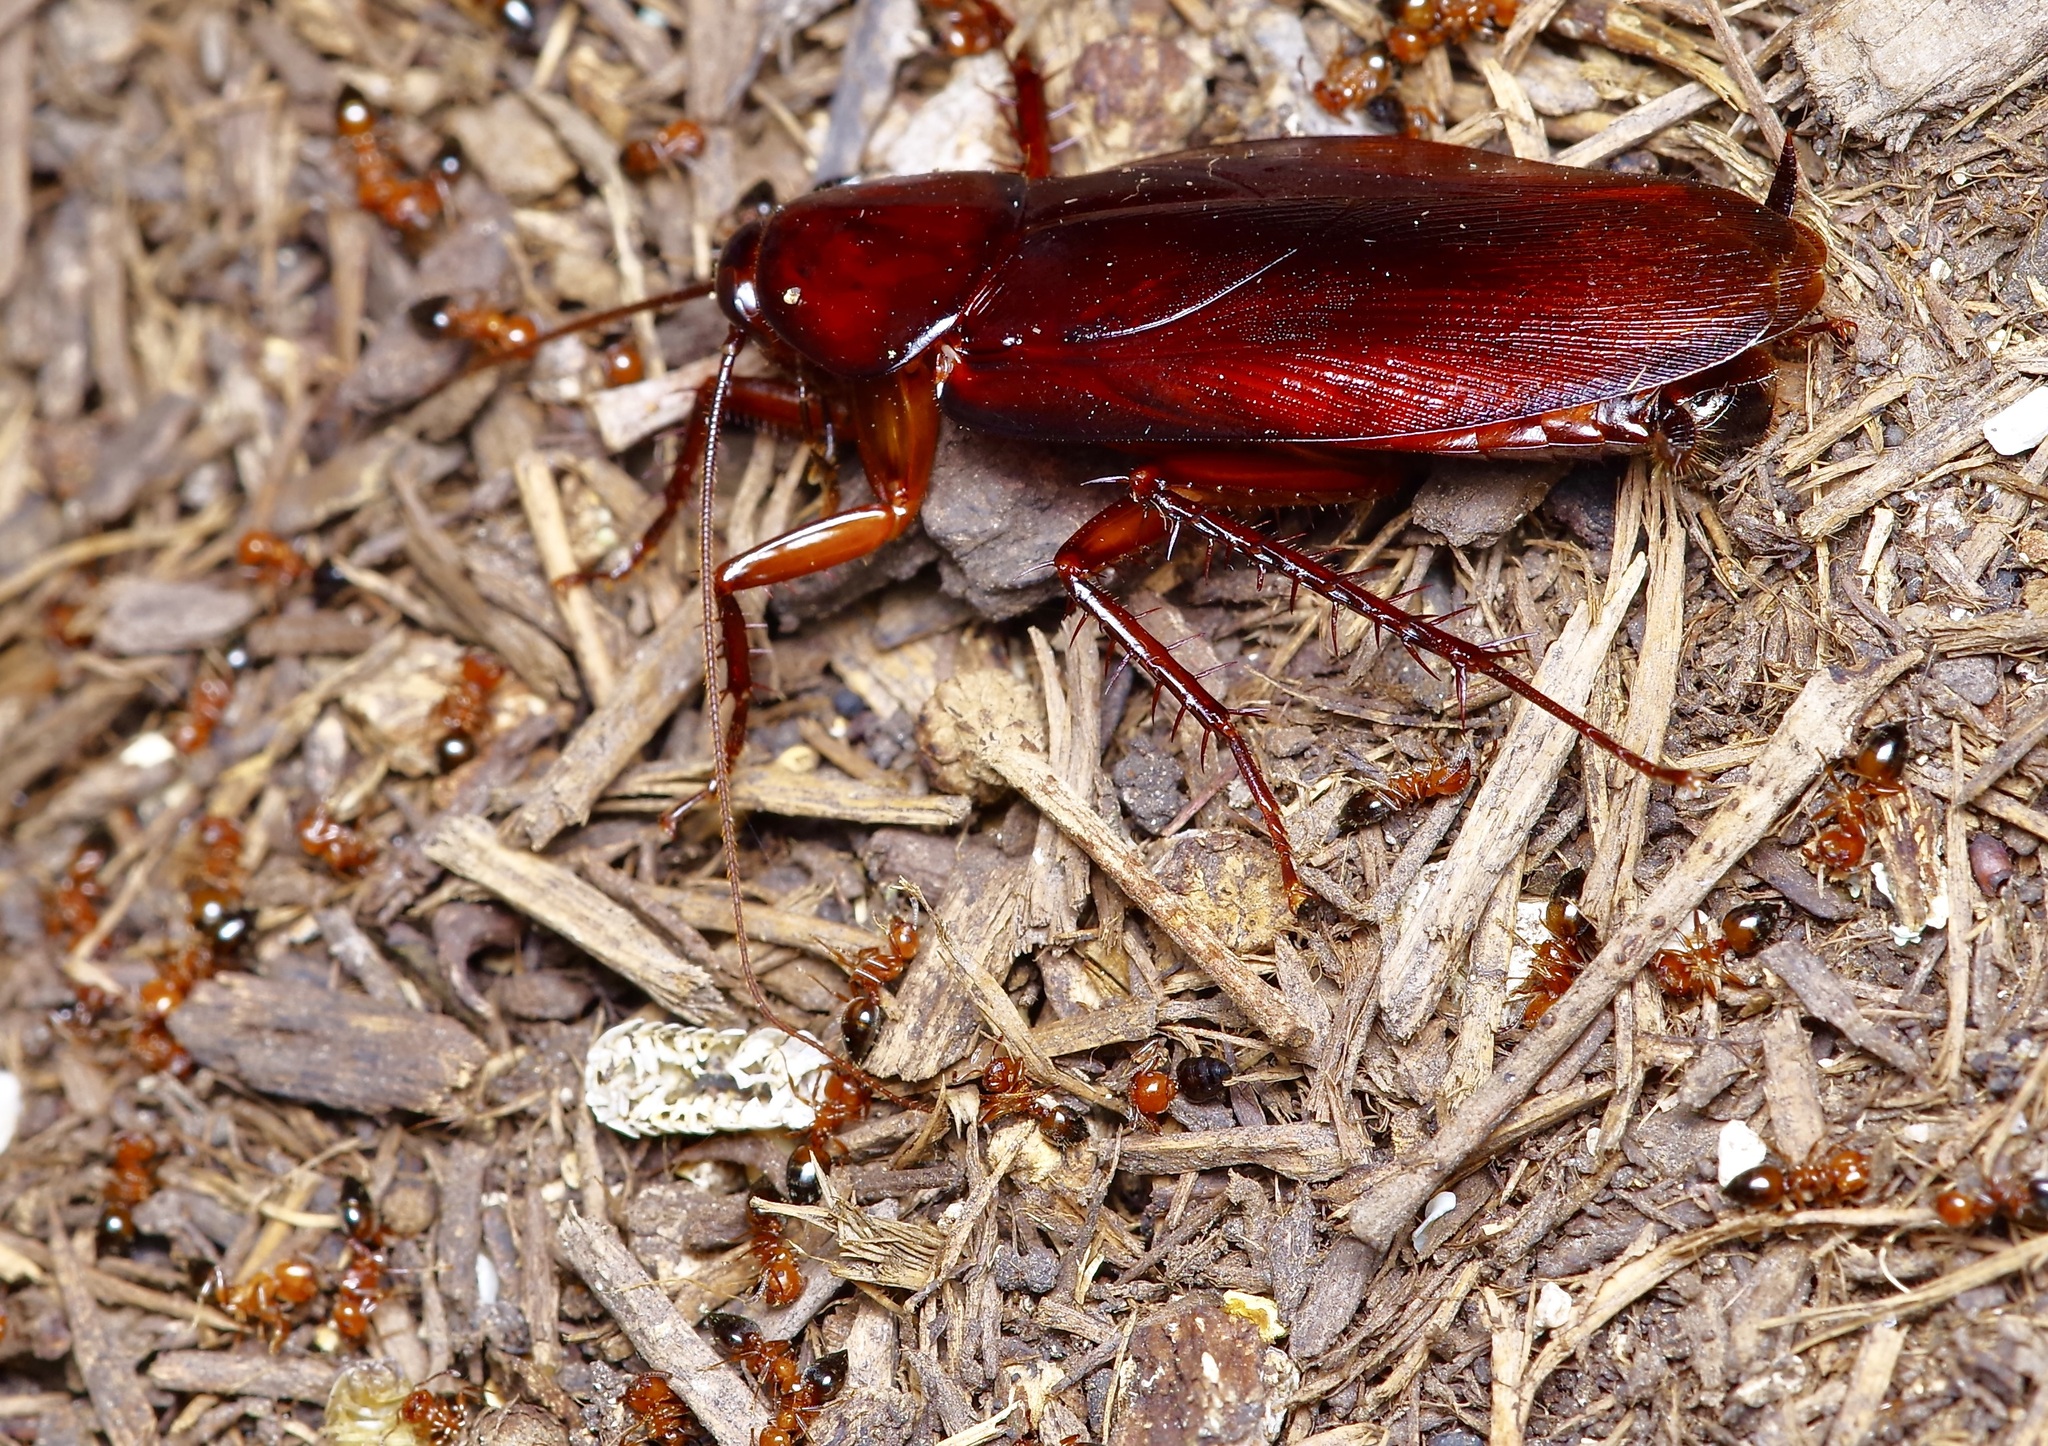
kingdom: Animalia
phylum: Arthropoda
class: Insecta
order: Hymenoptera
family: Formicidae
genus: Crematogaster
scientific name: Crematogaster laeviuscula
